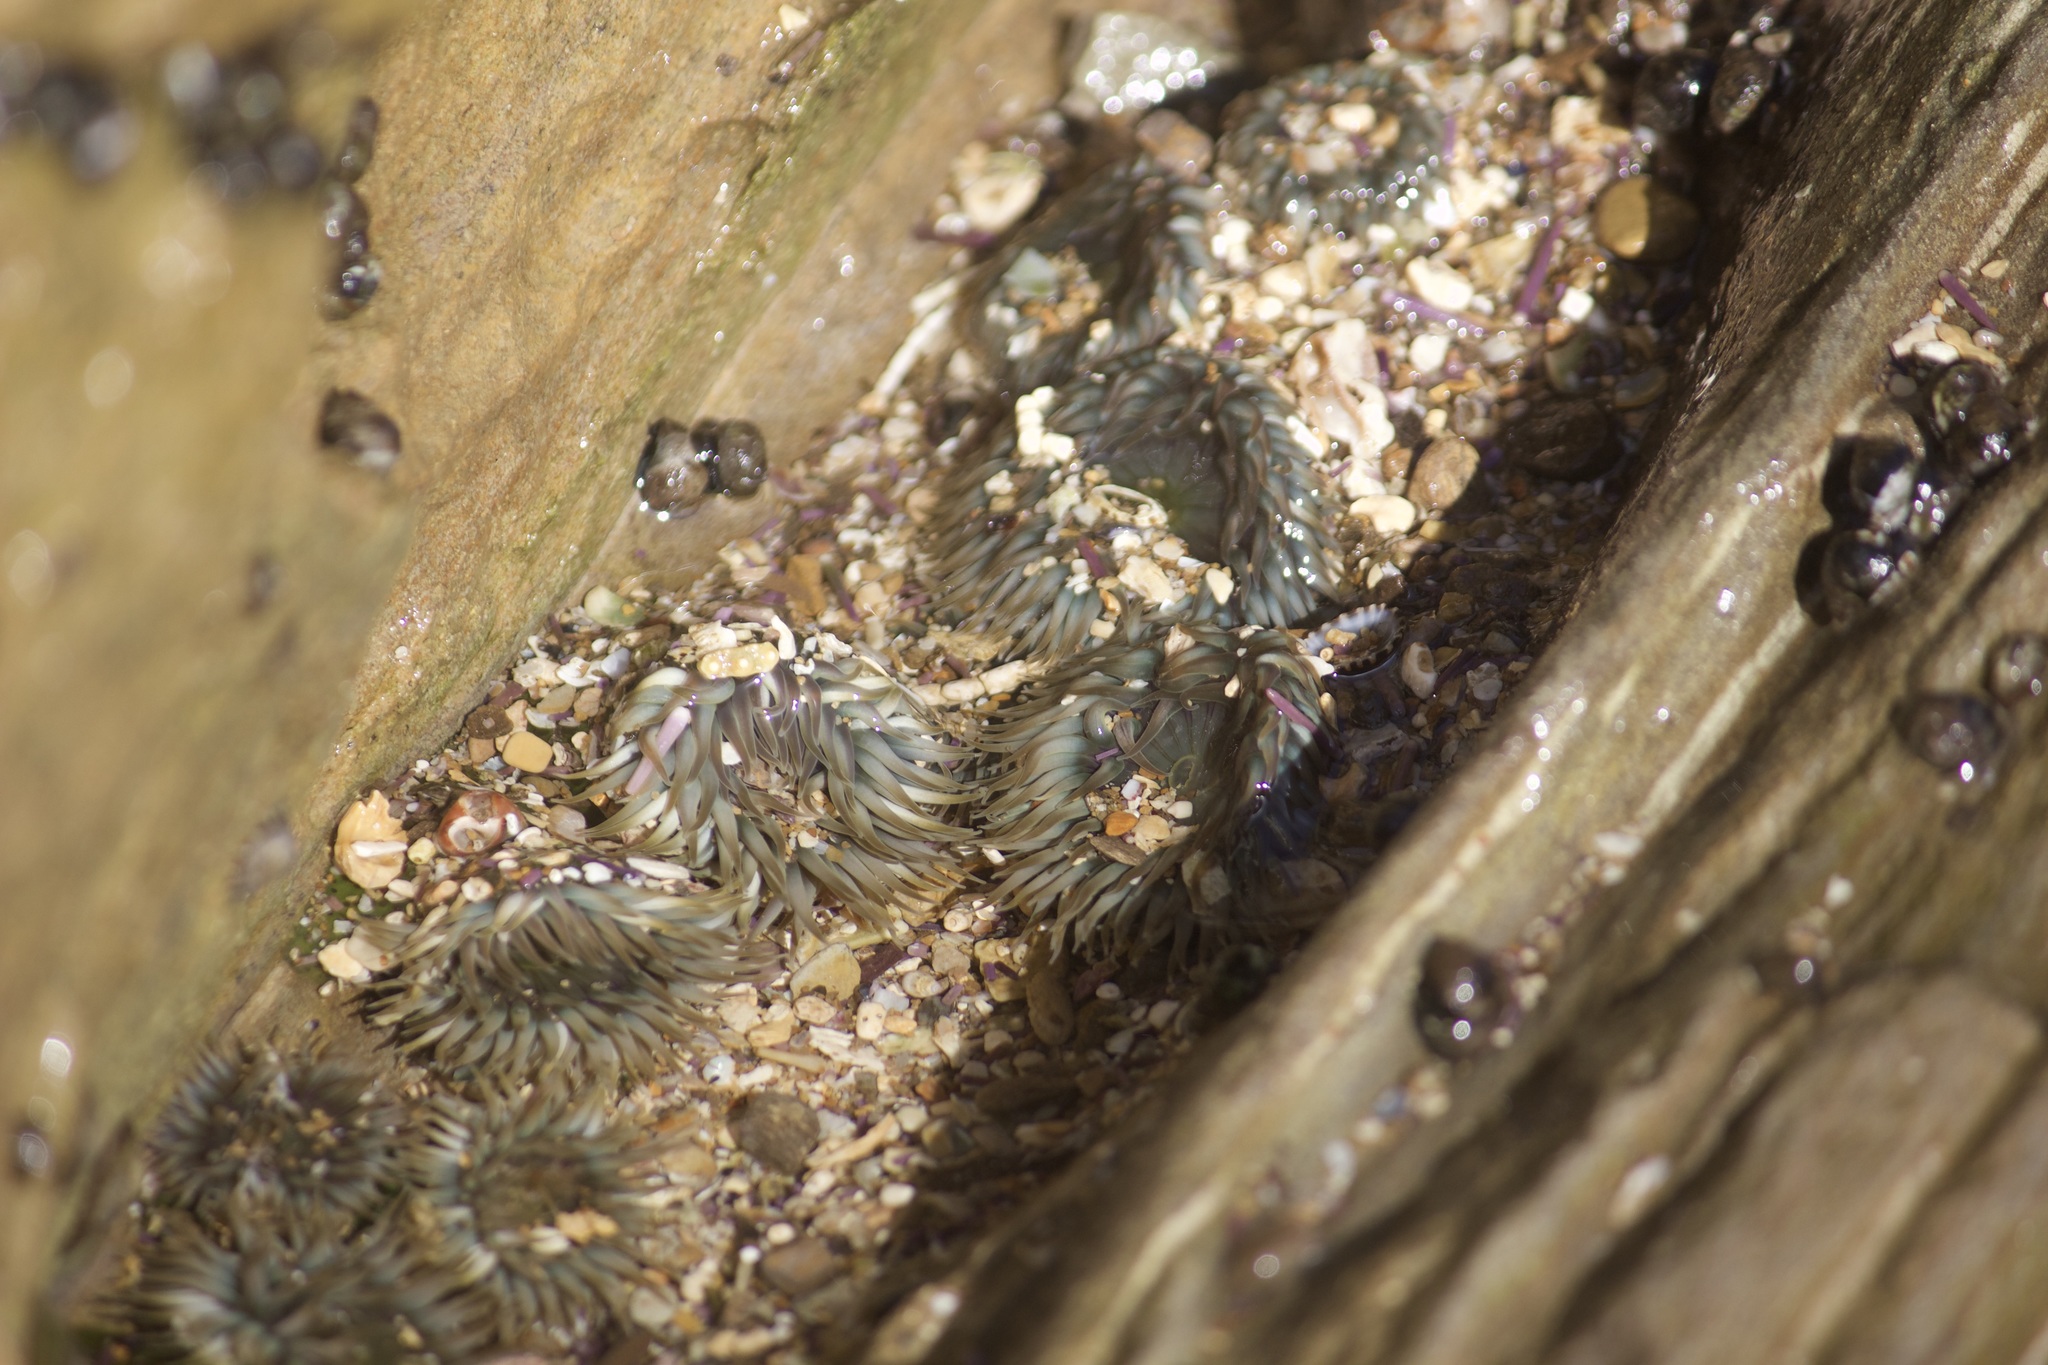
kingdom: Animalia
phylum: Cnidaria
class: Anthozoa
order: Actiniaria
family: Actiniidae
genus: Anthopleura
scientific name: Anthopleura elegantissima
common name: Clonal anemone
